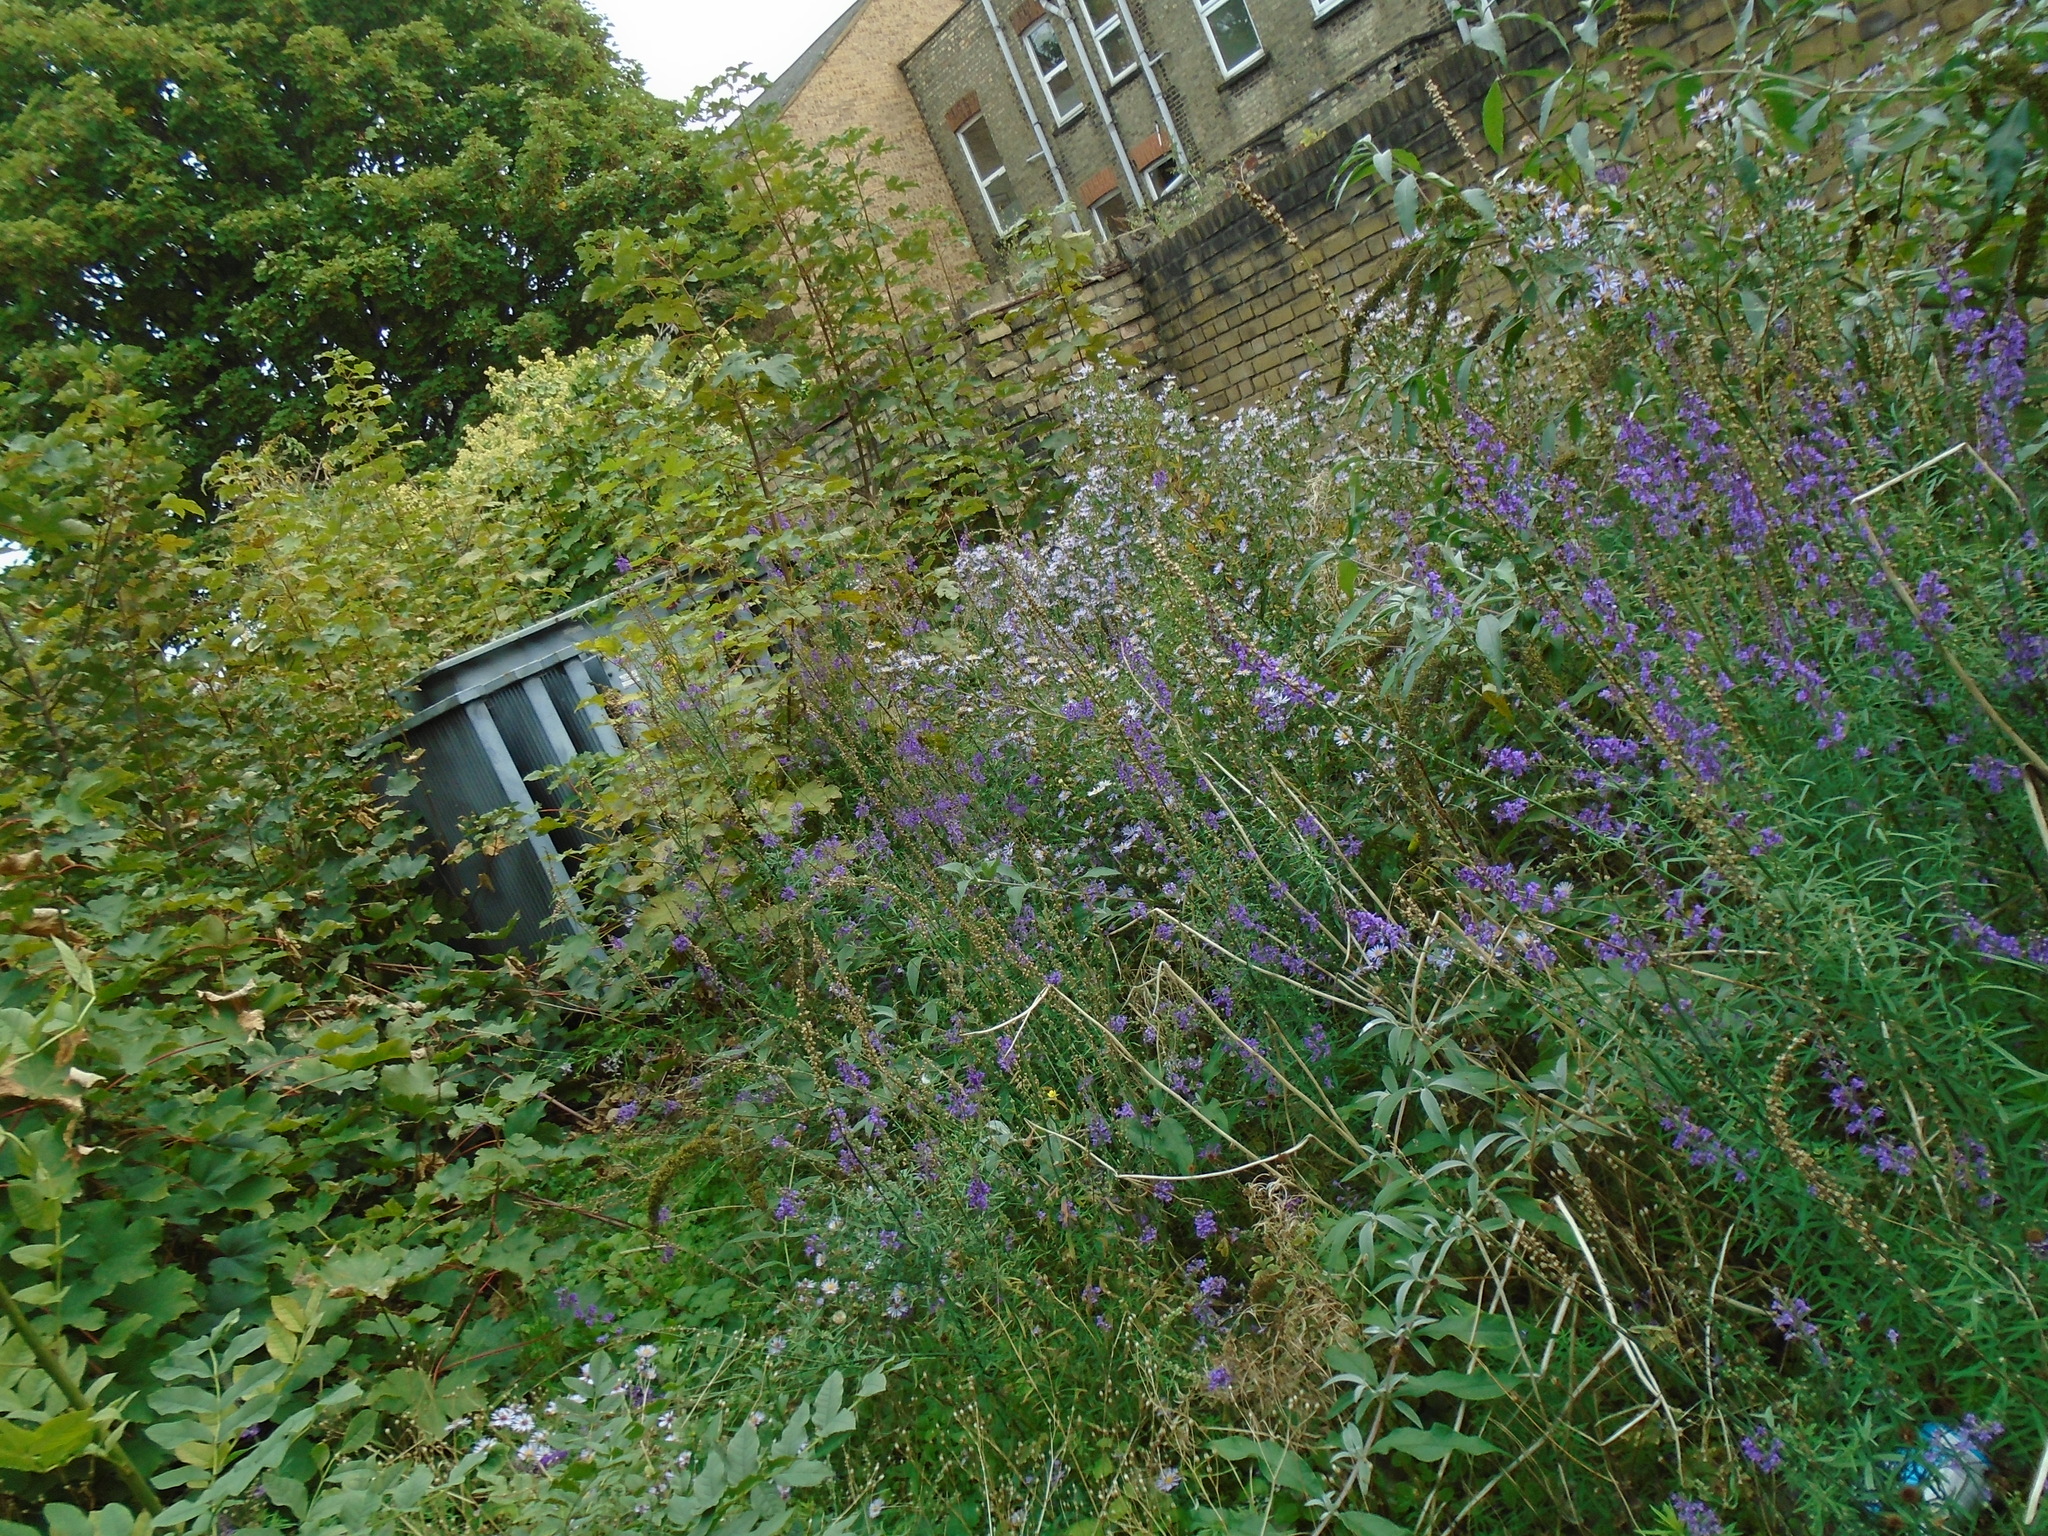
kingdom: Plantae
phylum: Tracheophyta
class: Magnoliopsida
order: Lamiales
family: Plantaginaceae
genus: Linaria
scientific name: Linaria purpurea
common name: Purple toadflax
